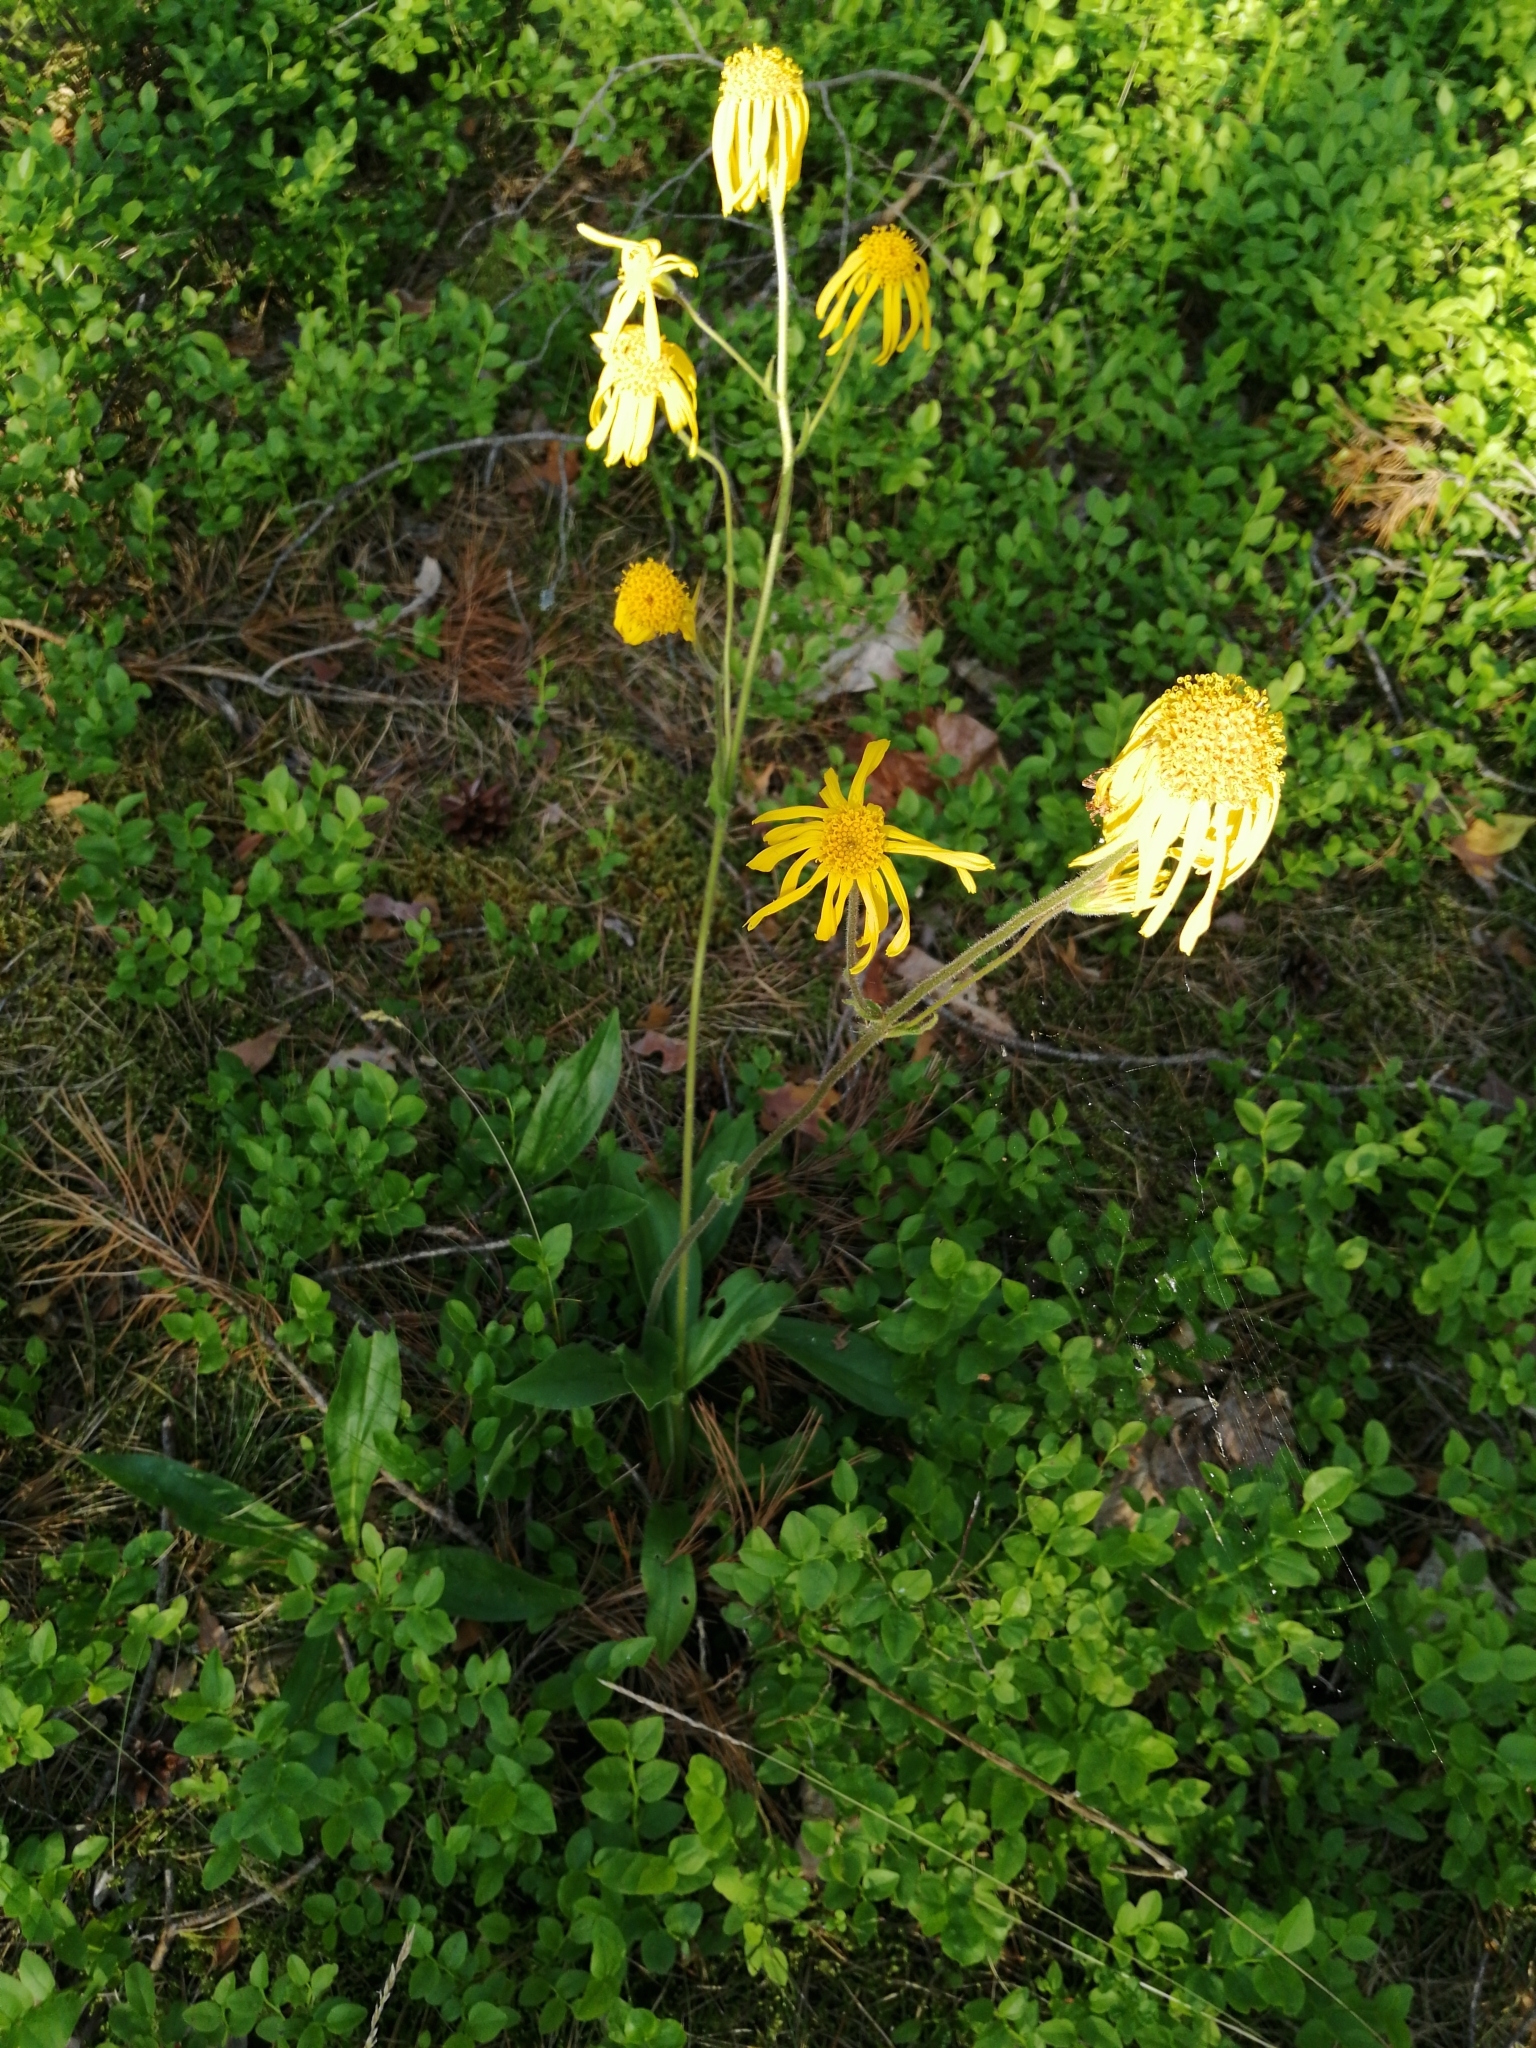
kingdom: Plantae
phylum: Tracheophyta
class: Magnoliopsida
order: Asterales
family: Asteraceae
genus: Arnica
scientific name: Arnica montana
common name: Leopard's bane
